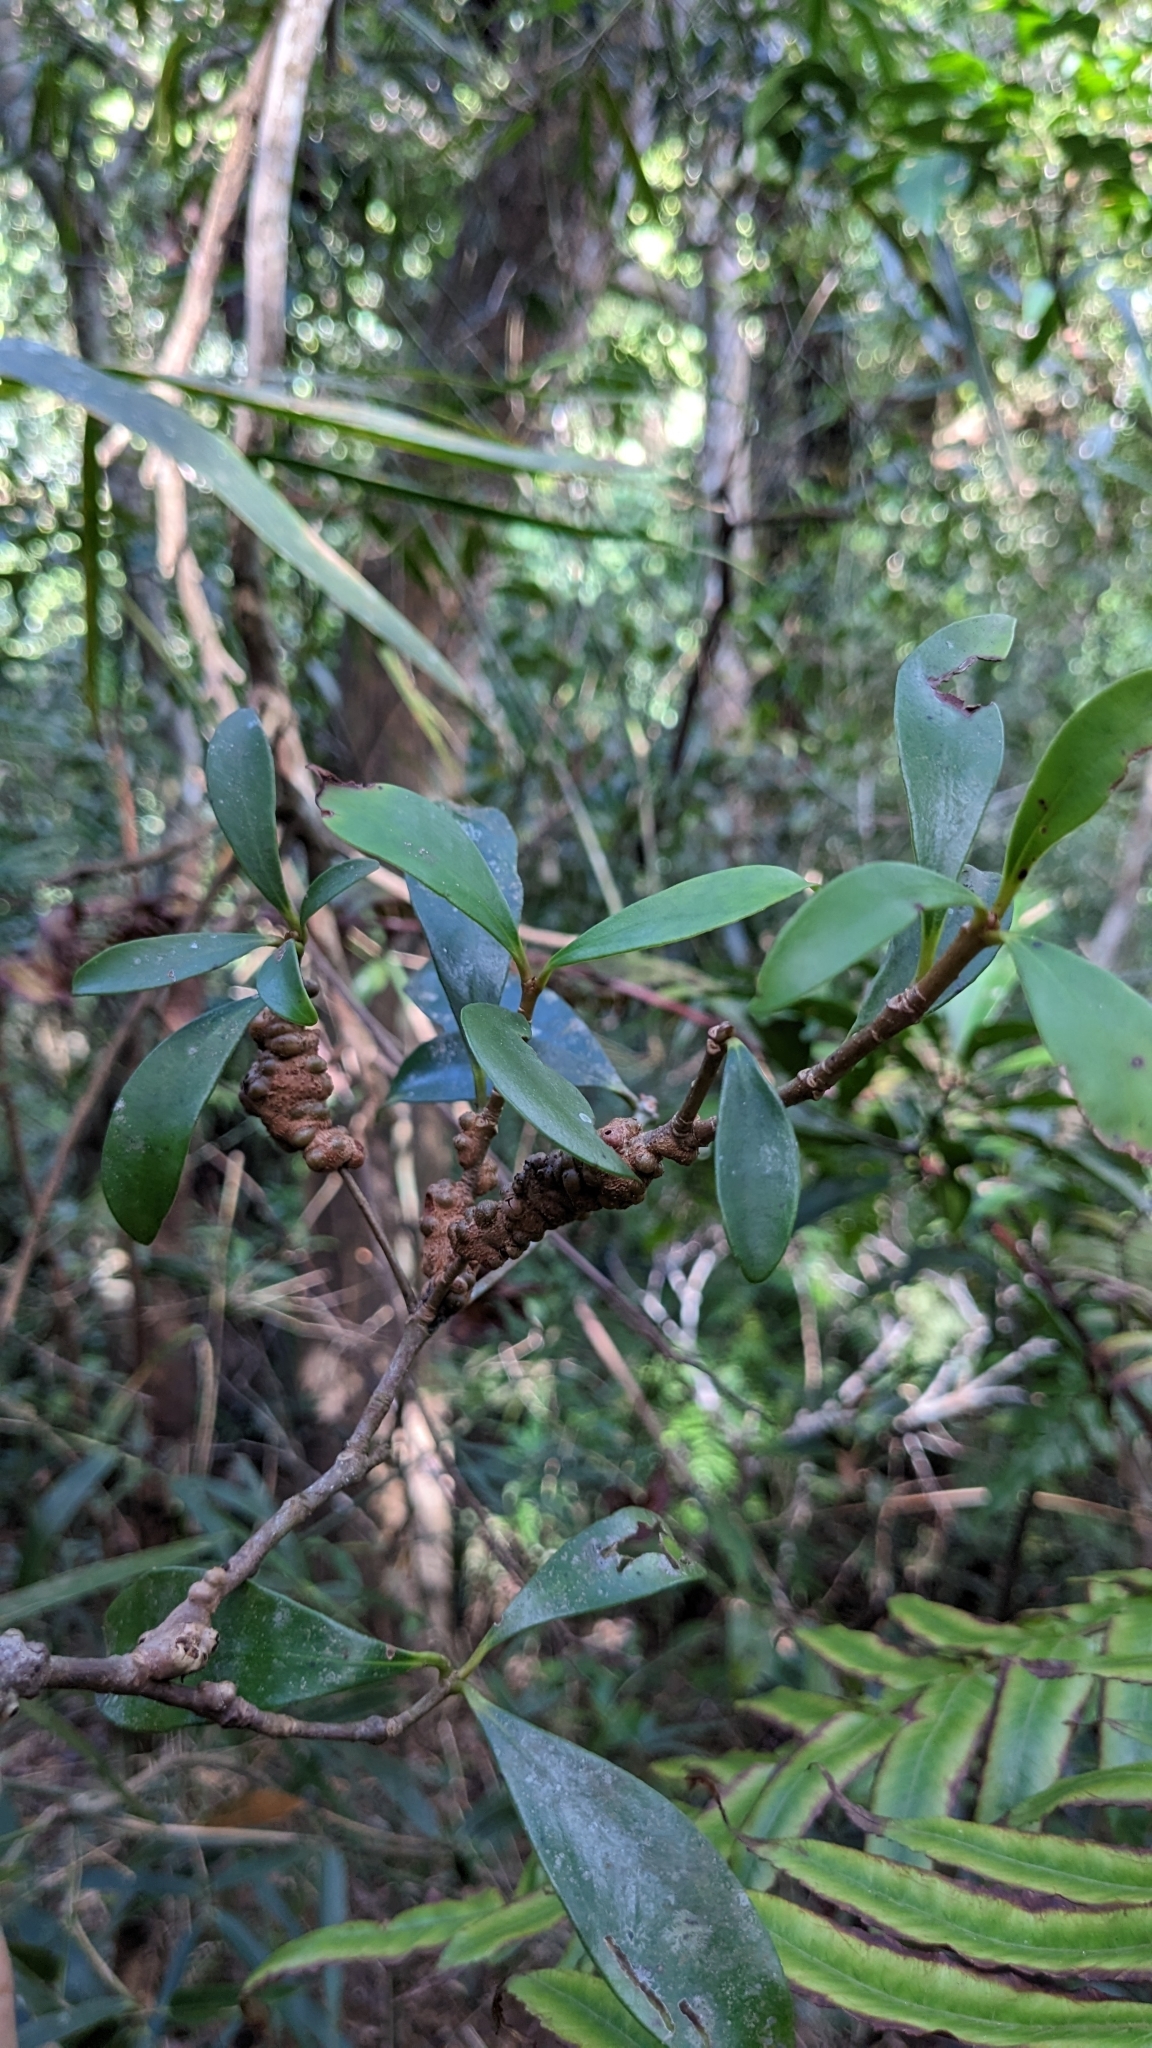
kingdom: Plantae
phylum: Tracheophyta
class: Magnoliopsida
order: Ericales
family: Ericaceae
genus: Vaccinium
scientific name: Vaccinium emarginatum
